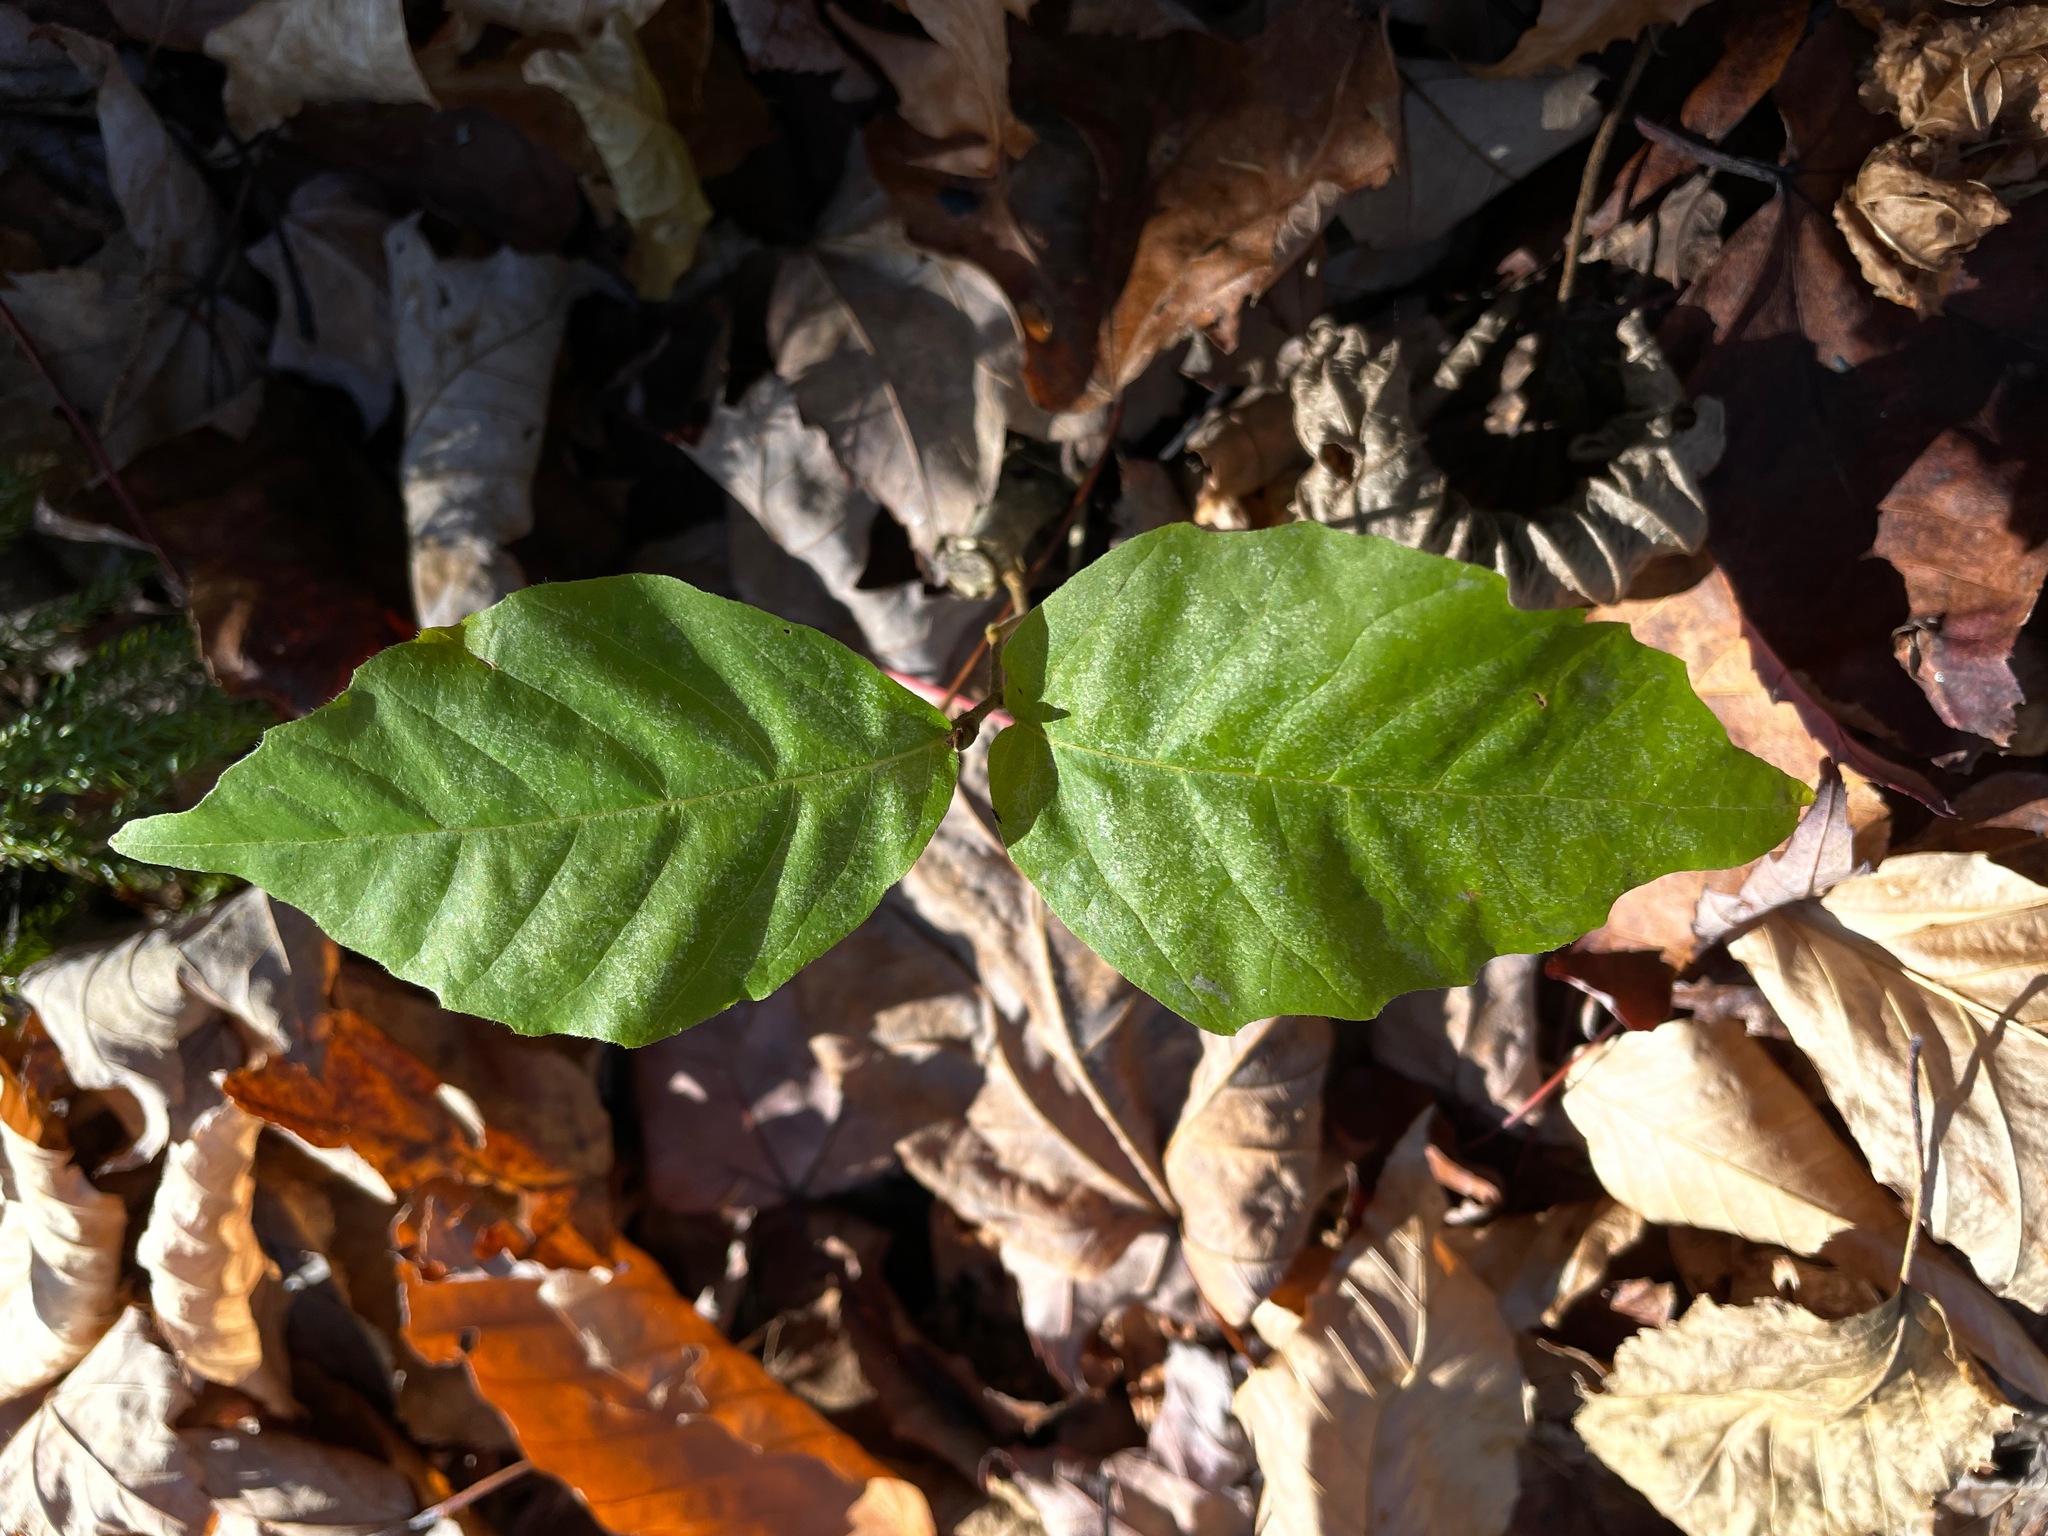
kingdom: Plantae
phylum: Tracheophyta
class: Magnoliopsida
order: Fagales
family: Fagaceae
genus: Fagus
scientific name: Fagus grandifolia
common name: American beech
